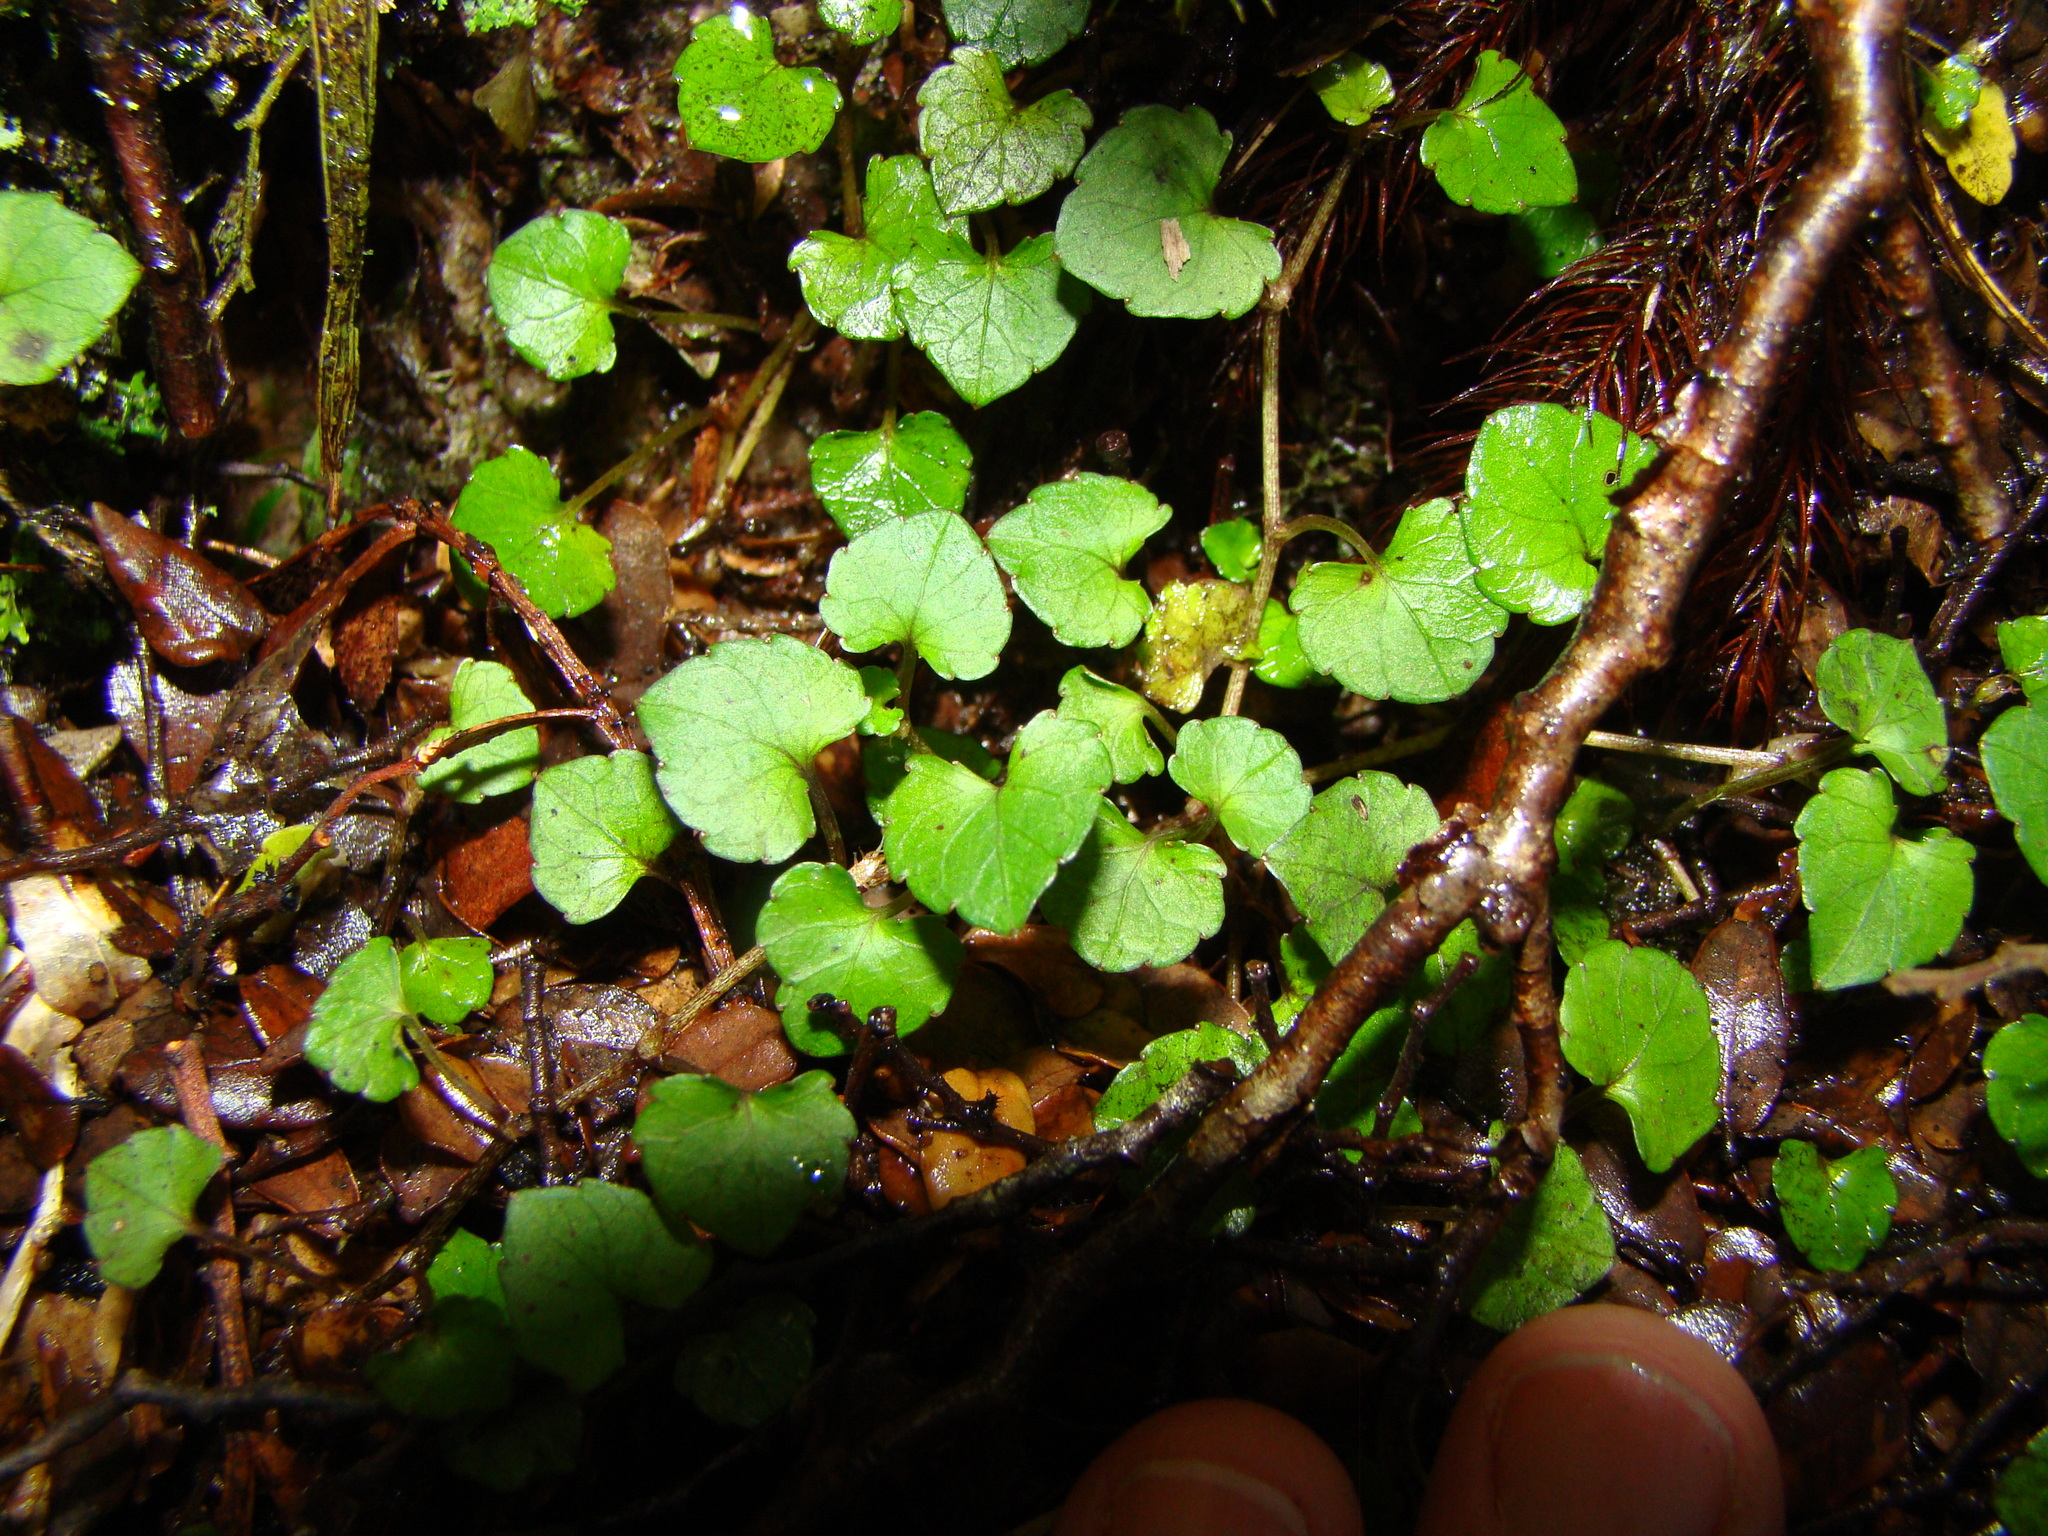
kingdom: Plantae
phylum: Tracheophyta
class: Magnoliopsida
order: Malpighiales
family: Violaceae
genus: Viola
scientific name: Viola filicaulis
